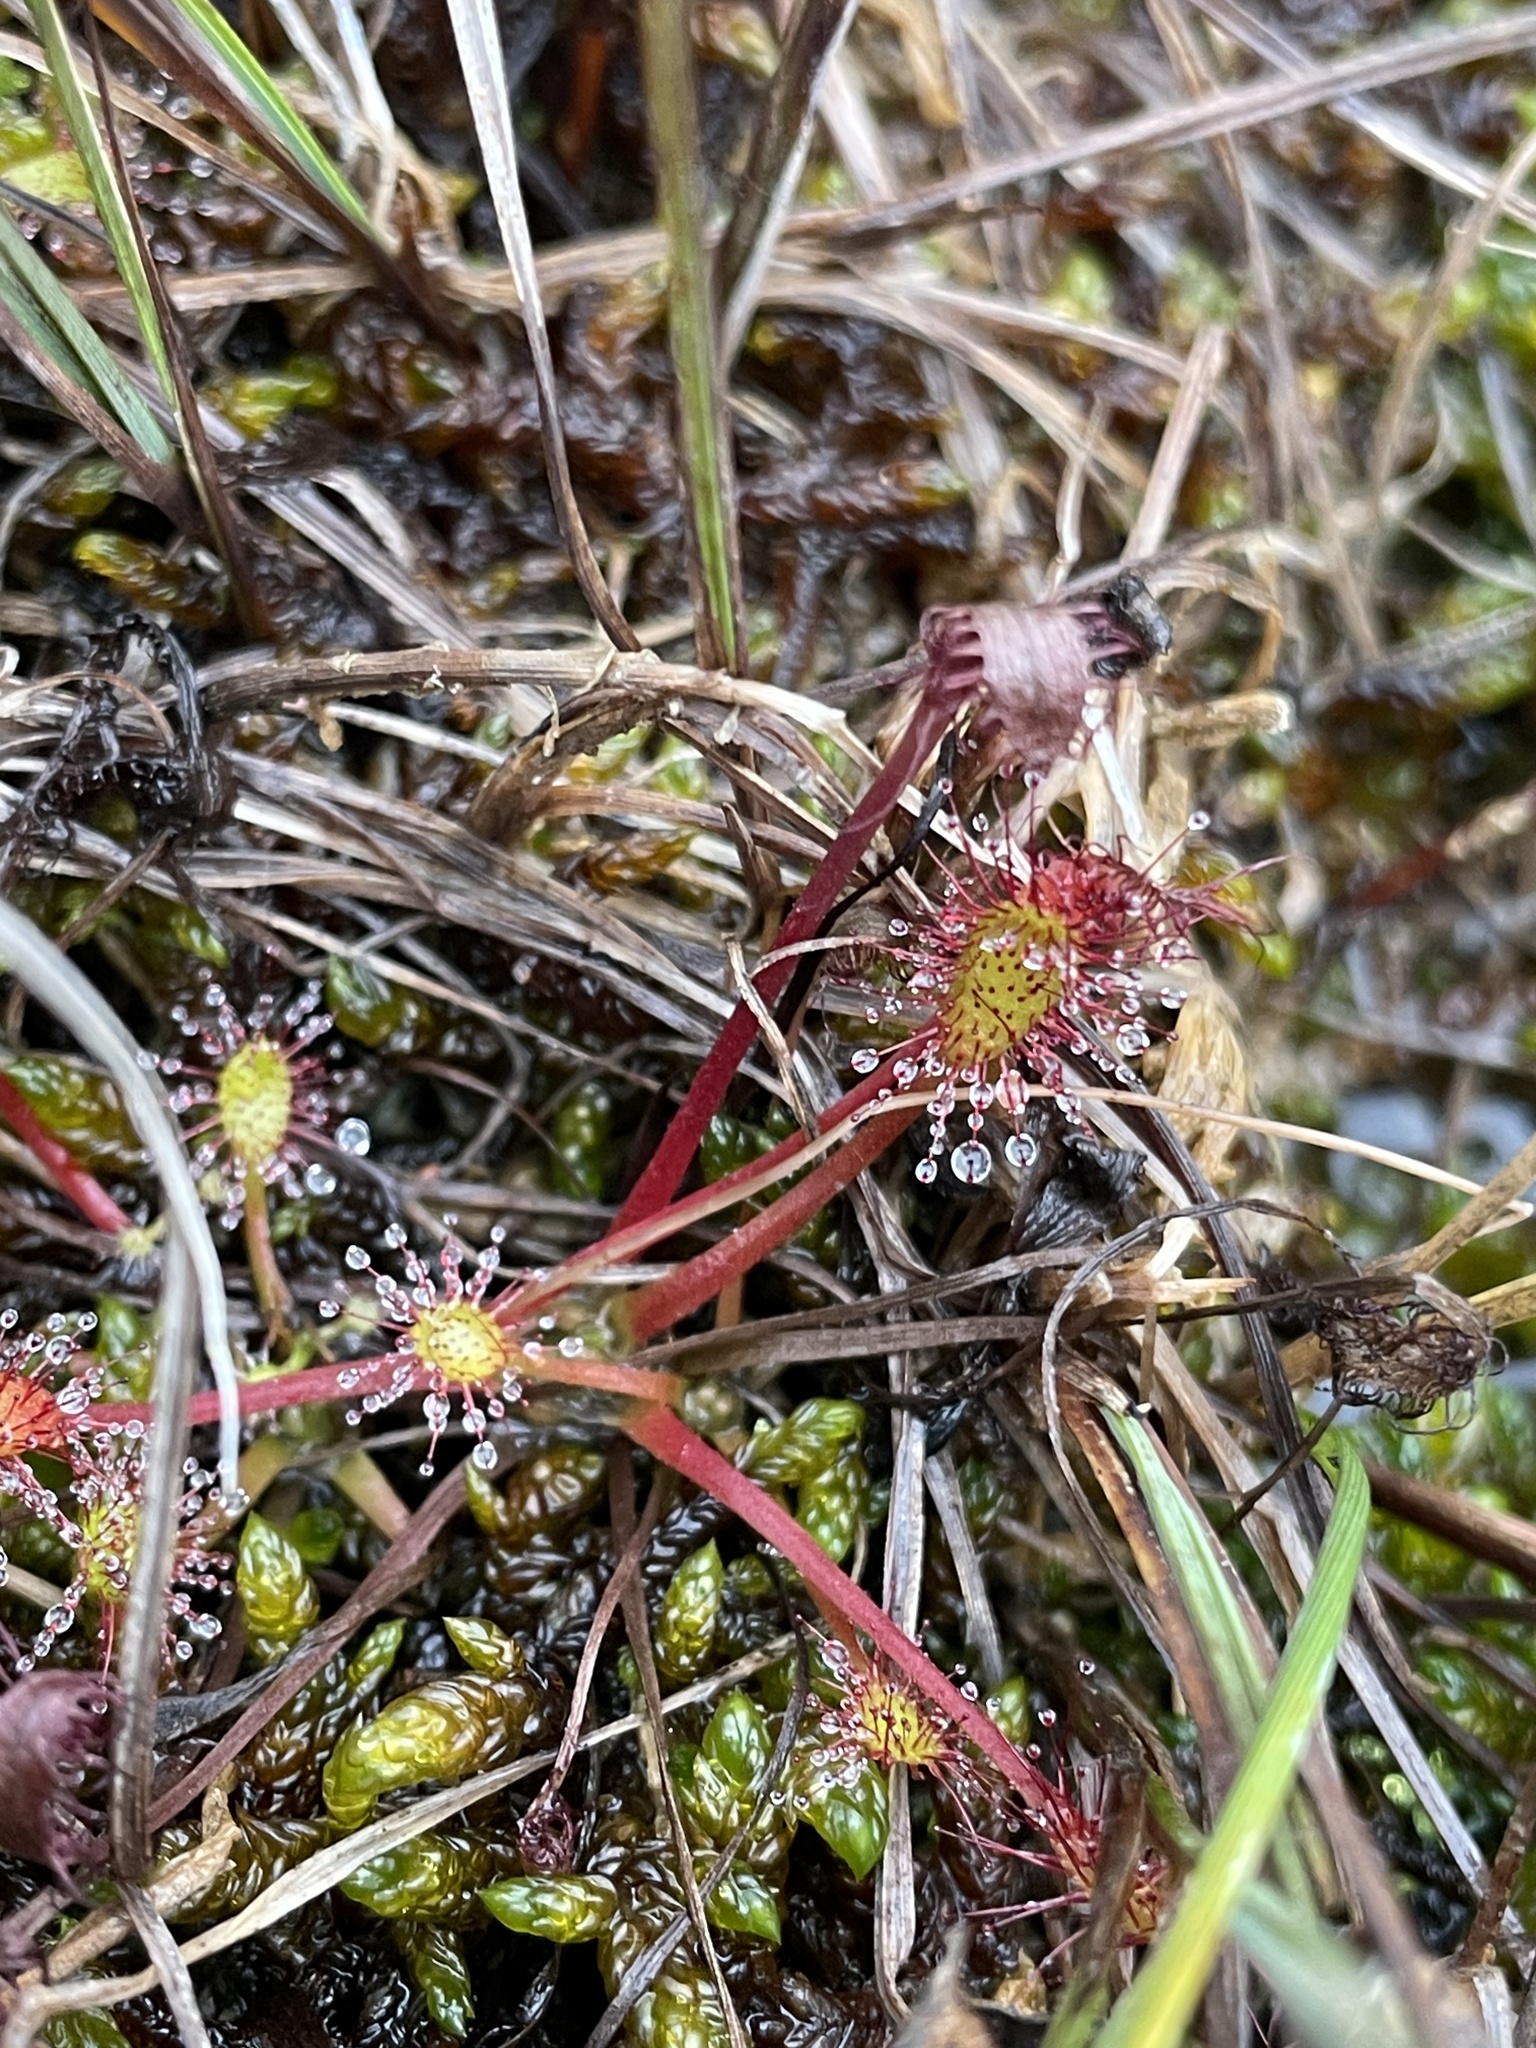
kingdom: Plantae
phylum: Tracheophyta
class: Magnoliopsida
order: Caryophyllales
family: Droseraceae
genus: Drosera
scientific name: Drosera anglica
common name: Great sundew
